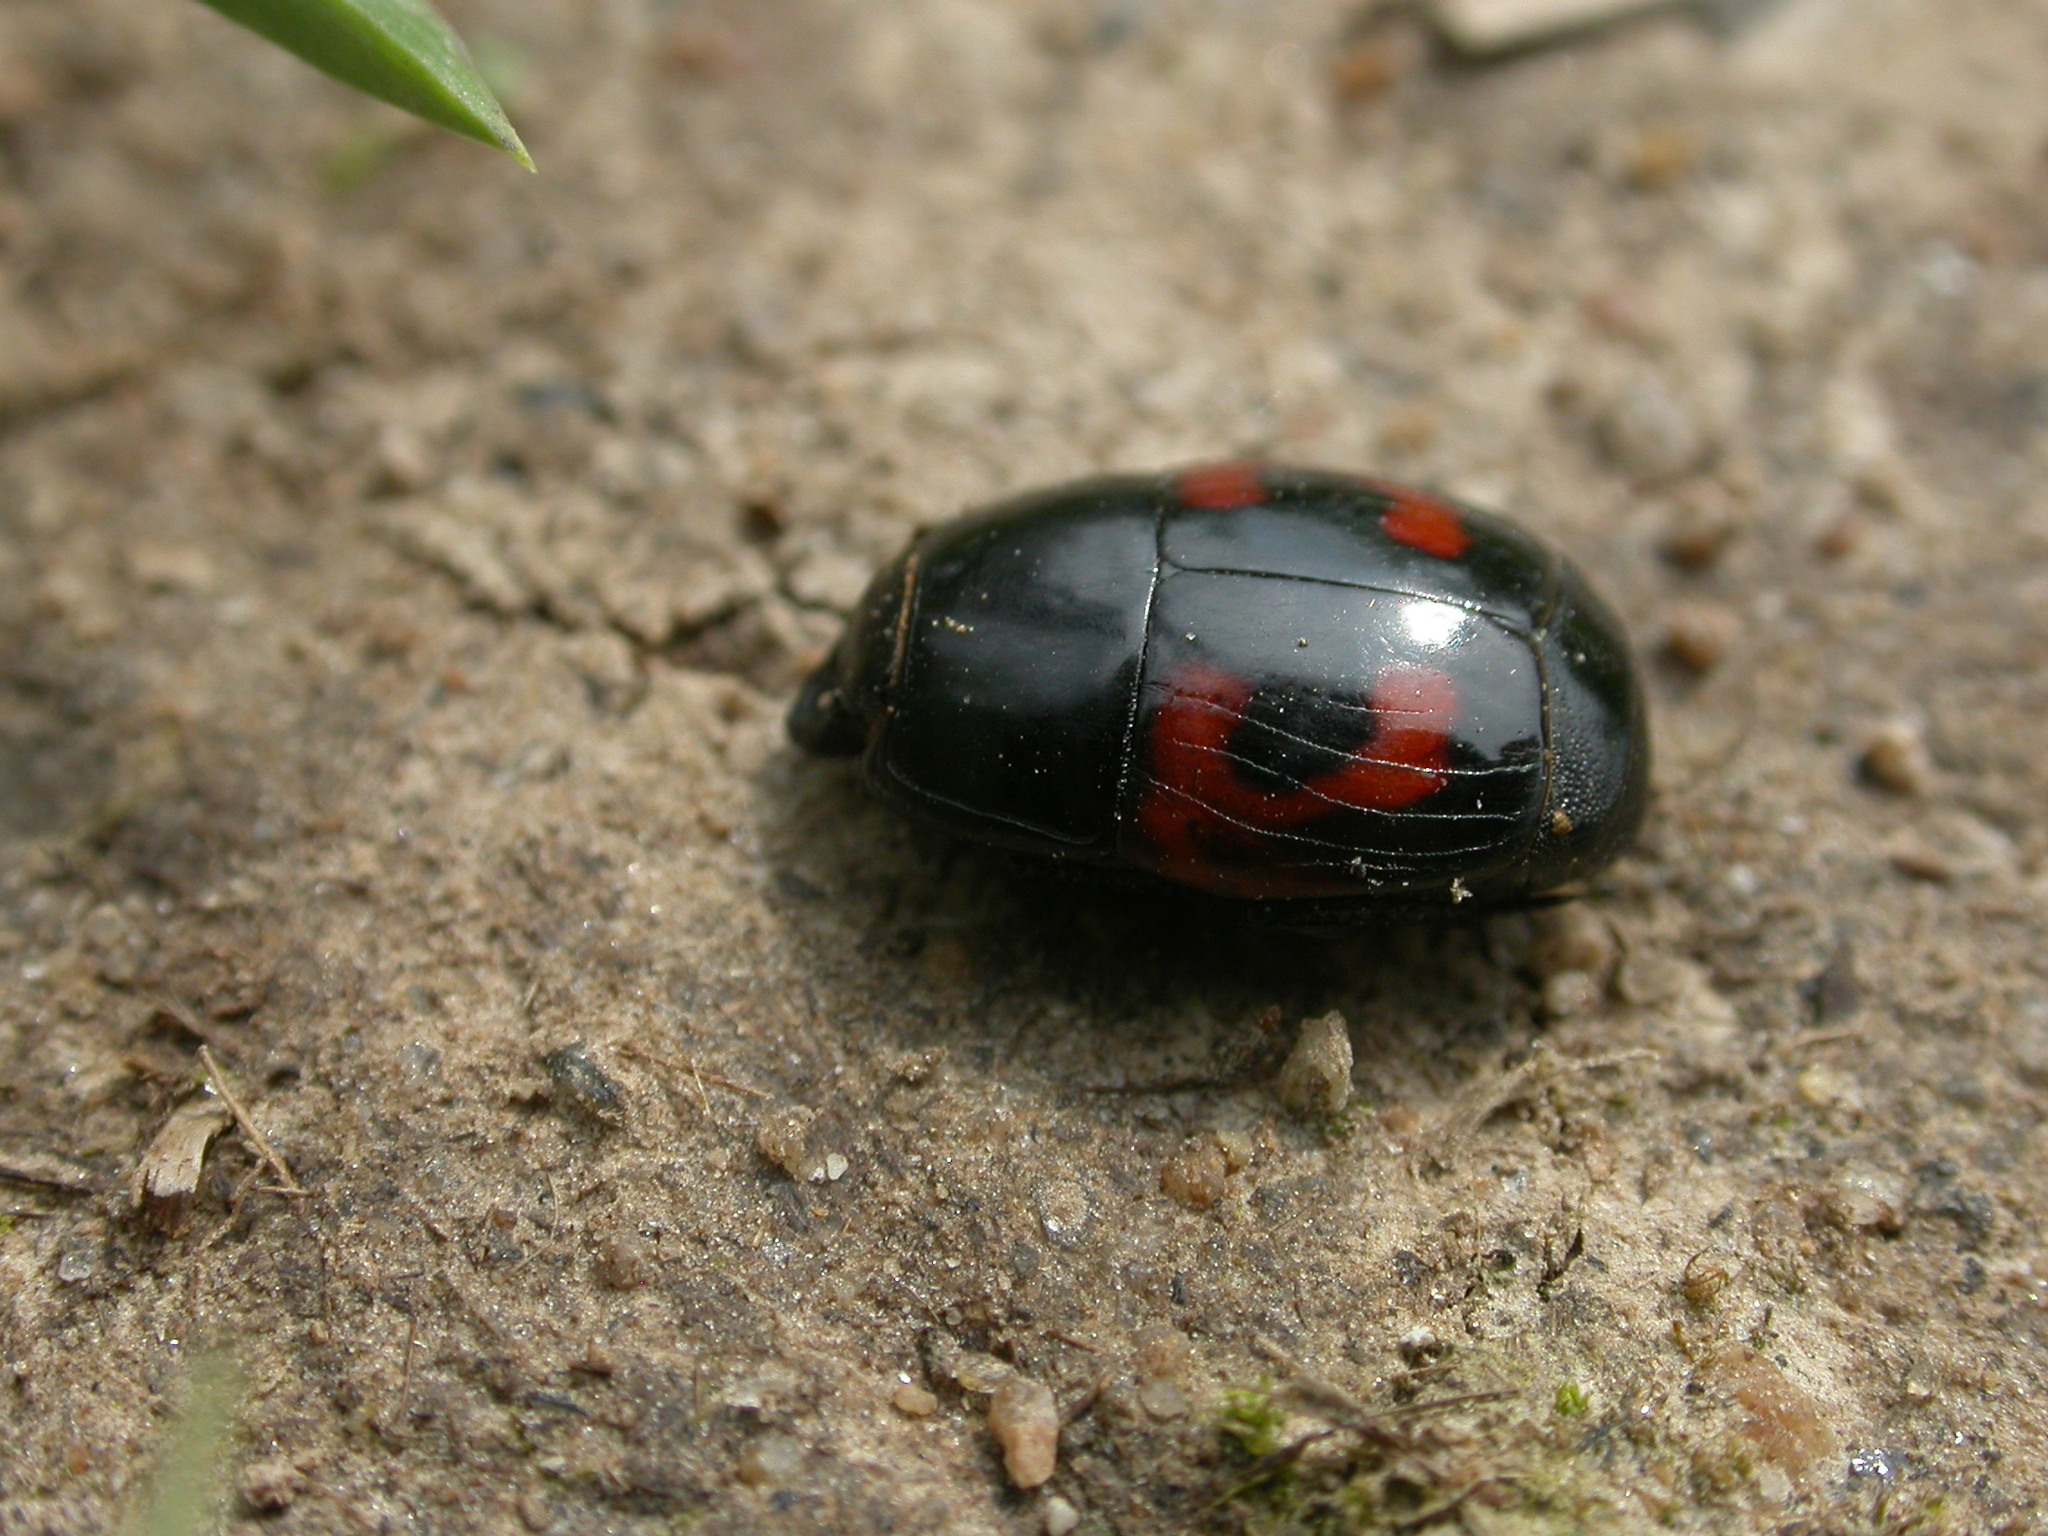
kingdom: Animalia
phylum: Arthropoda
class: Insecta
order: Coleoptera
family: Histeridae
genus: Hister
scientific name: Hister quadrimaculatus
